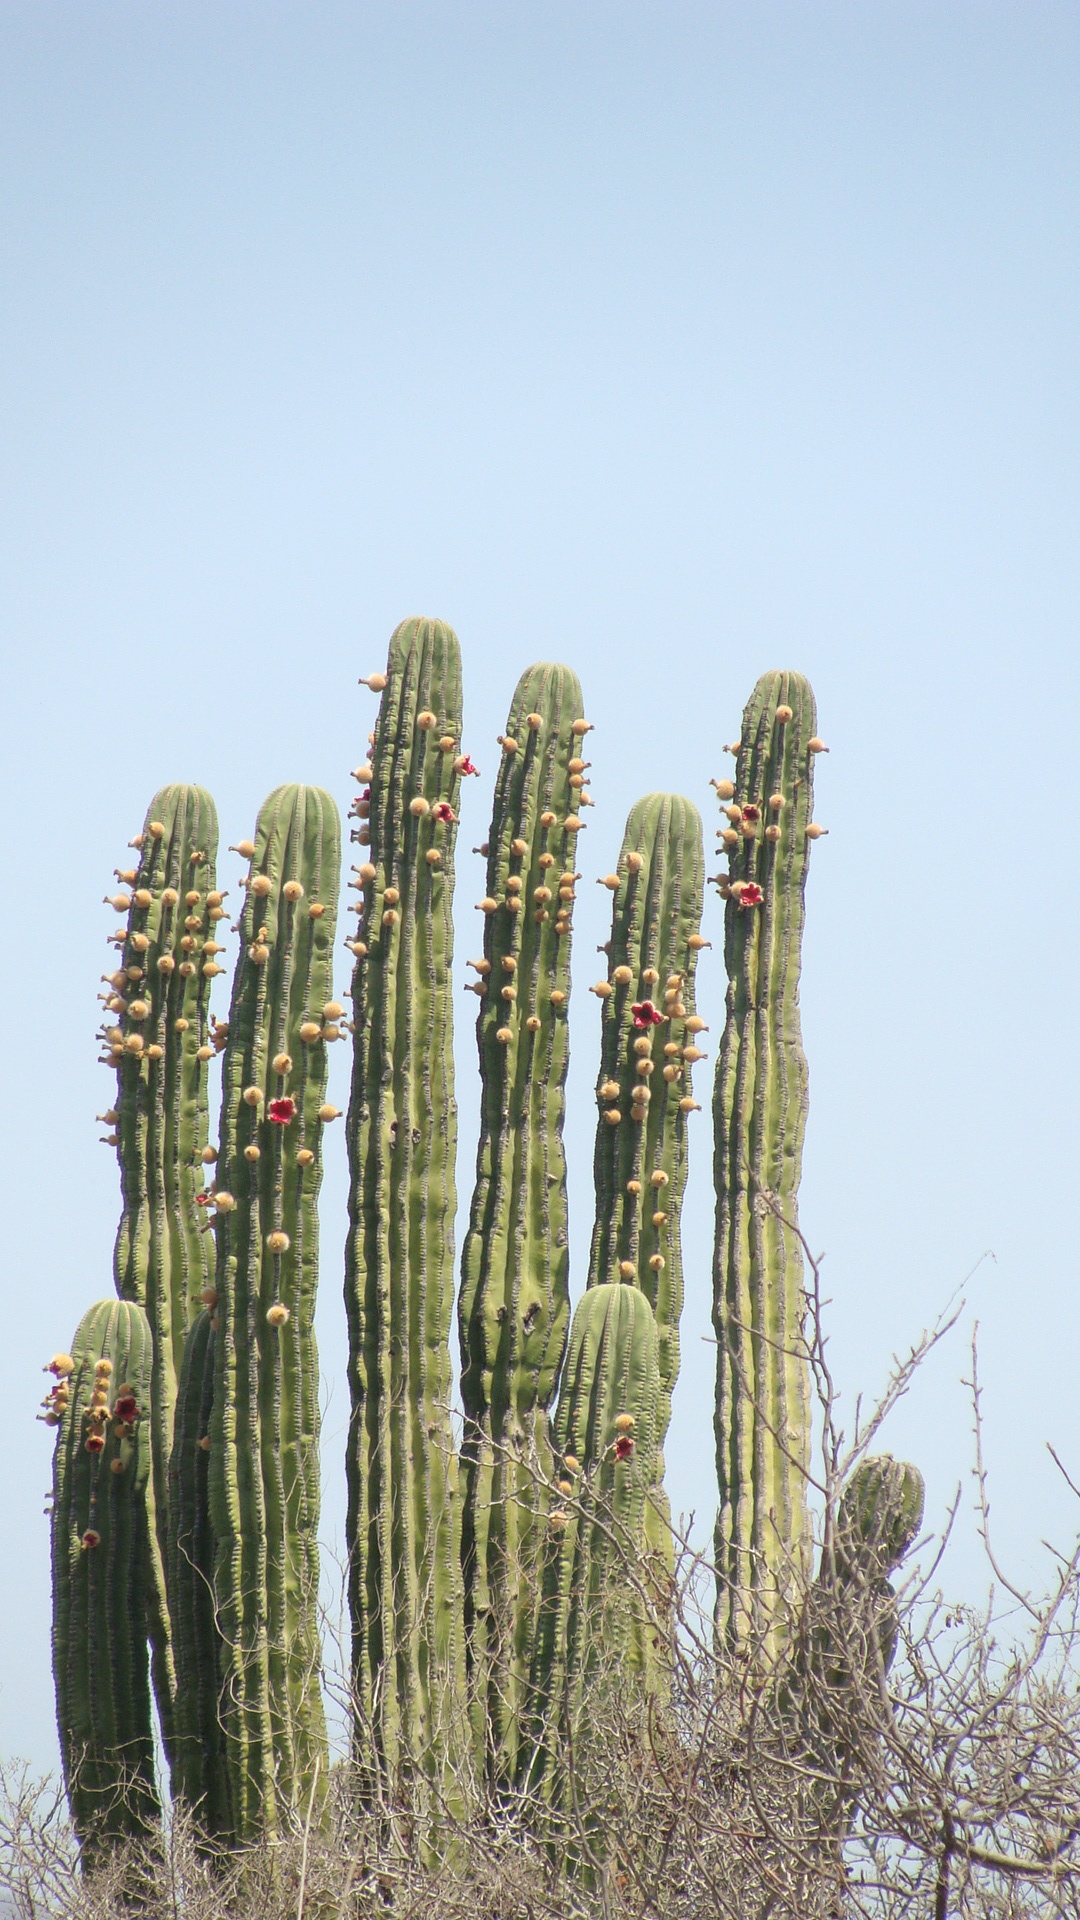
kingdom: Plantae
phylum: Tracheophyta
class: Magnoliopsida
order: Caryophyllales
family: Cactaceae
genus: Pachycereus
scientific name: Pachycereus pringlei
